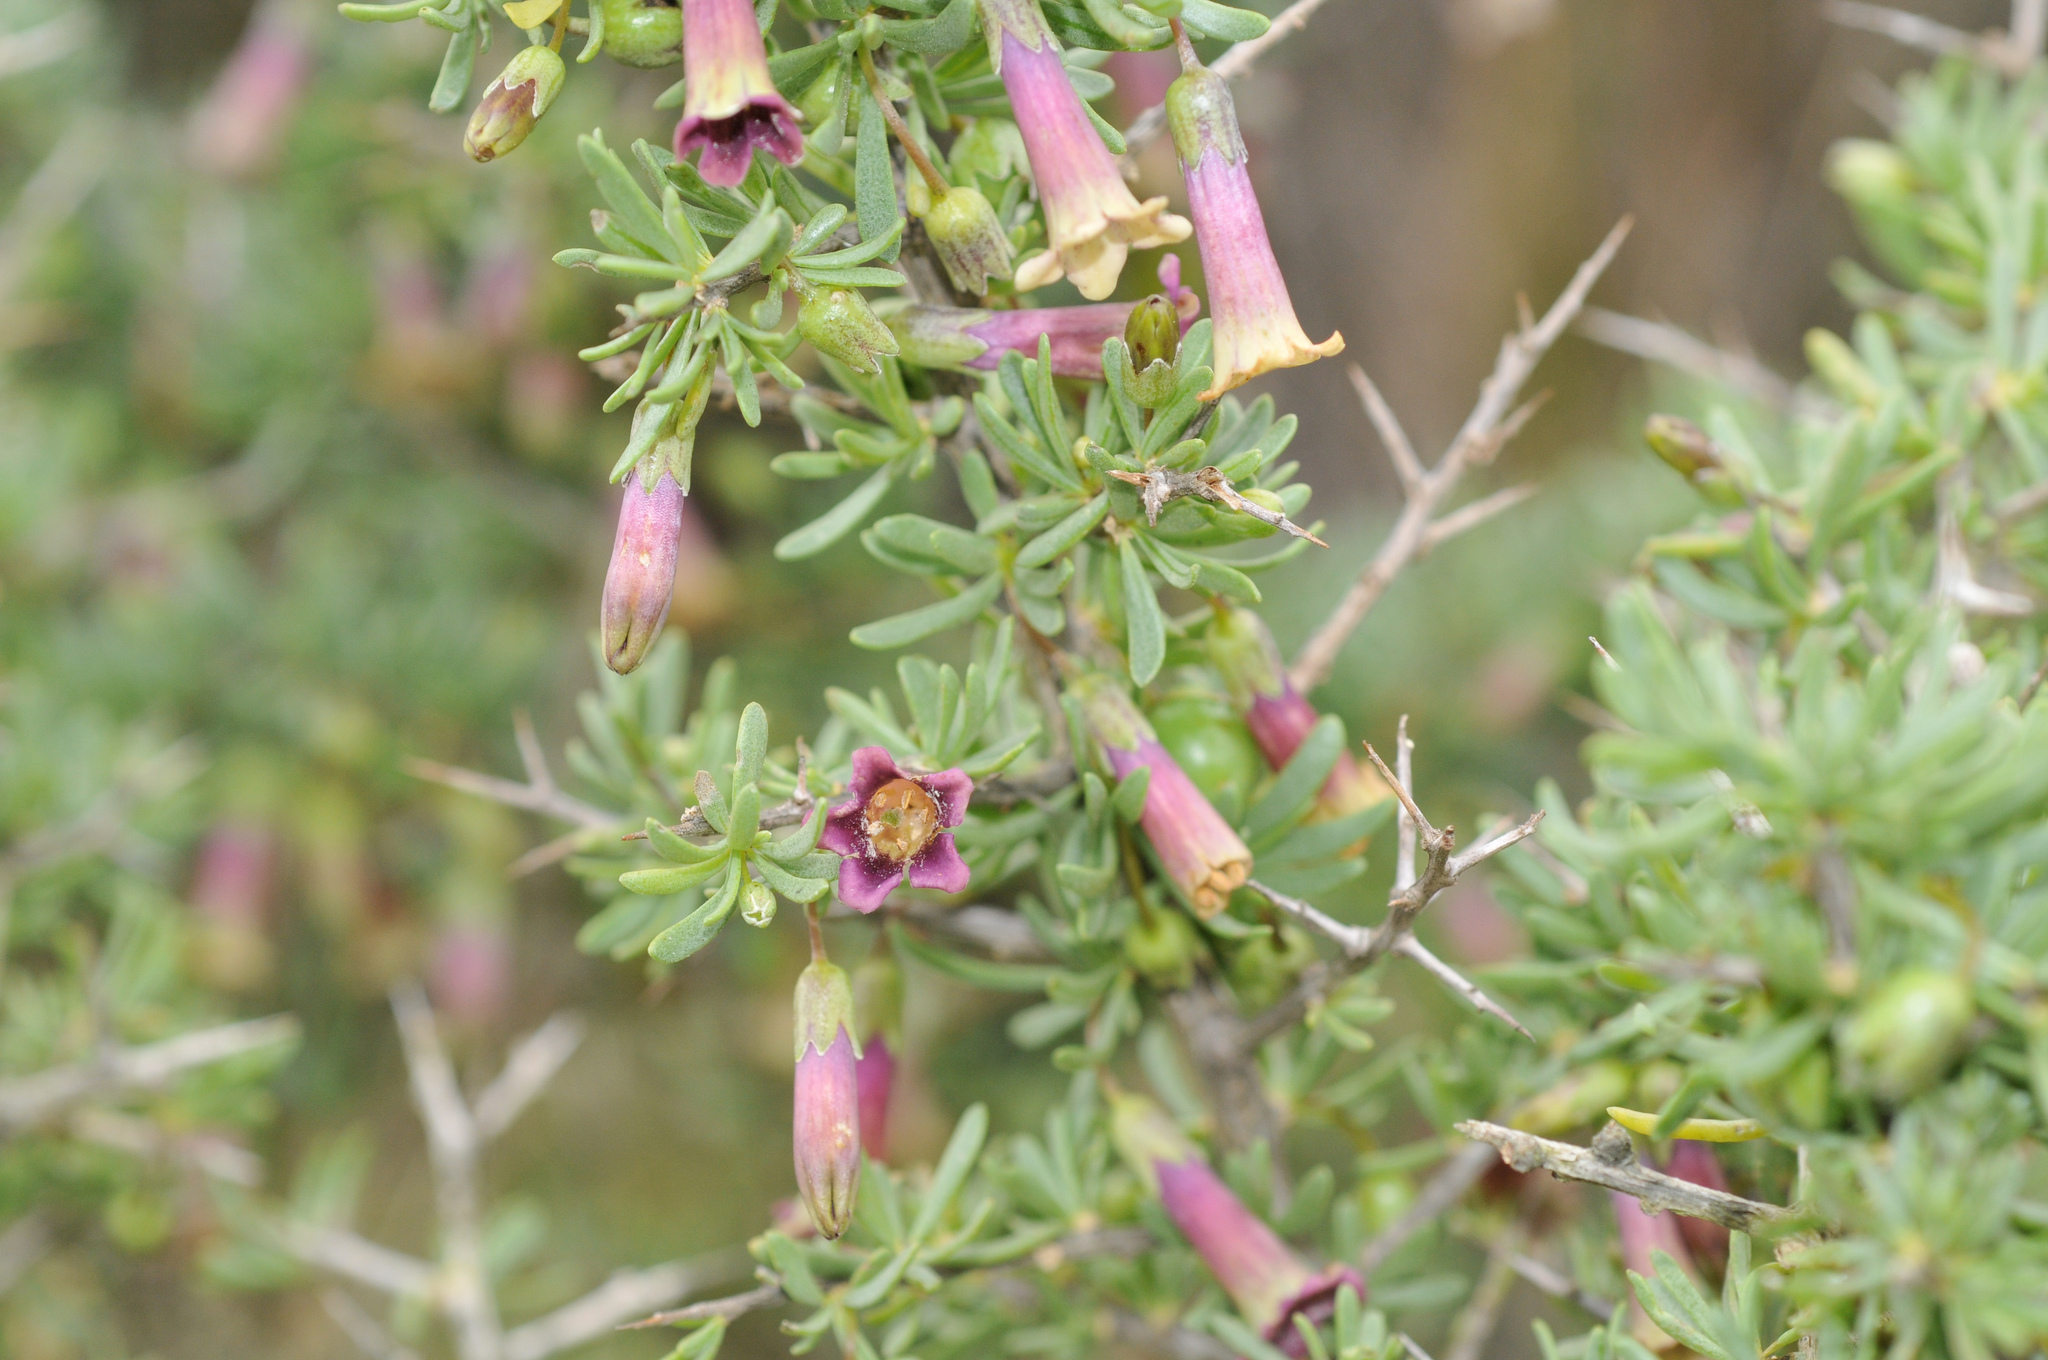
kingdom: Plantae
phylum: Tracheophyta
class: Magnoliopsida
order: Solanales
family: Solanaceae
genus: Lycium
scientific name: Lycium afrum
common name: Kaffir boxthorn
